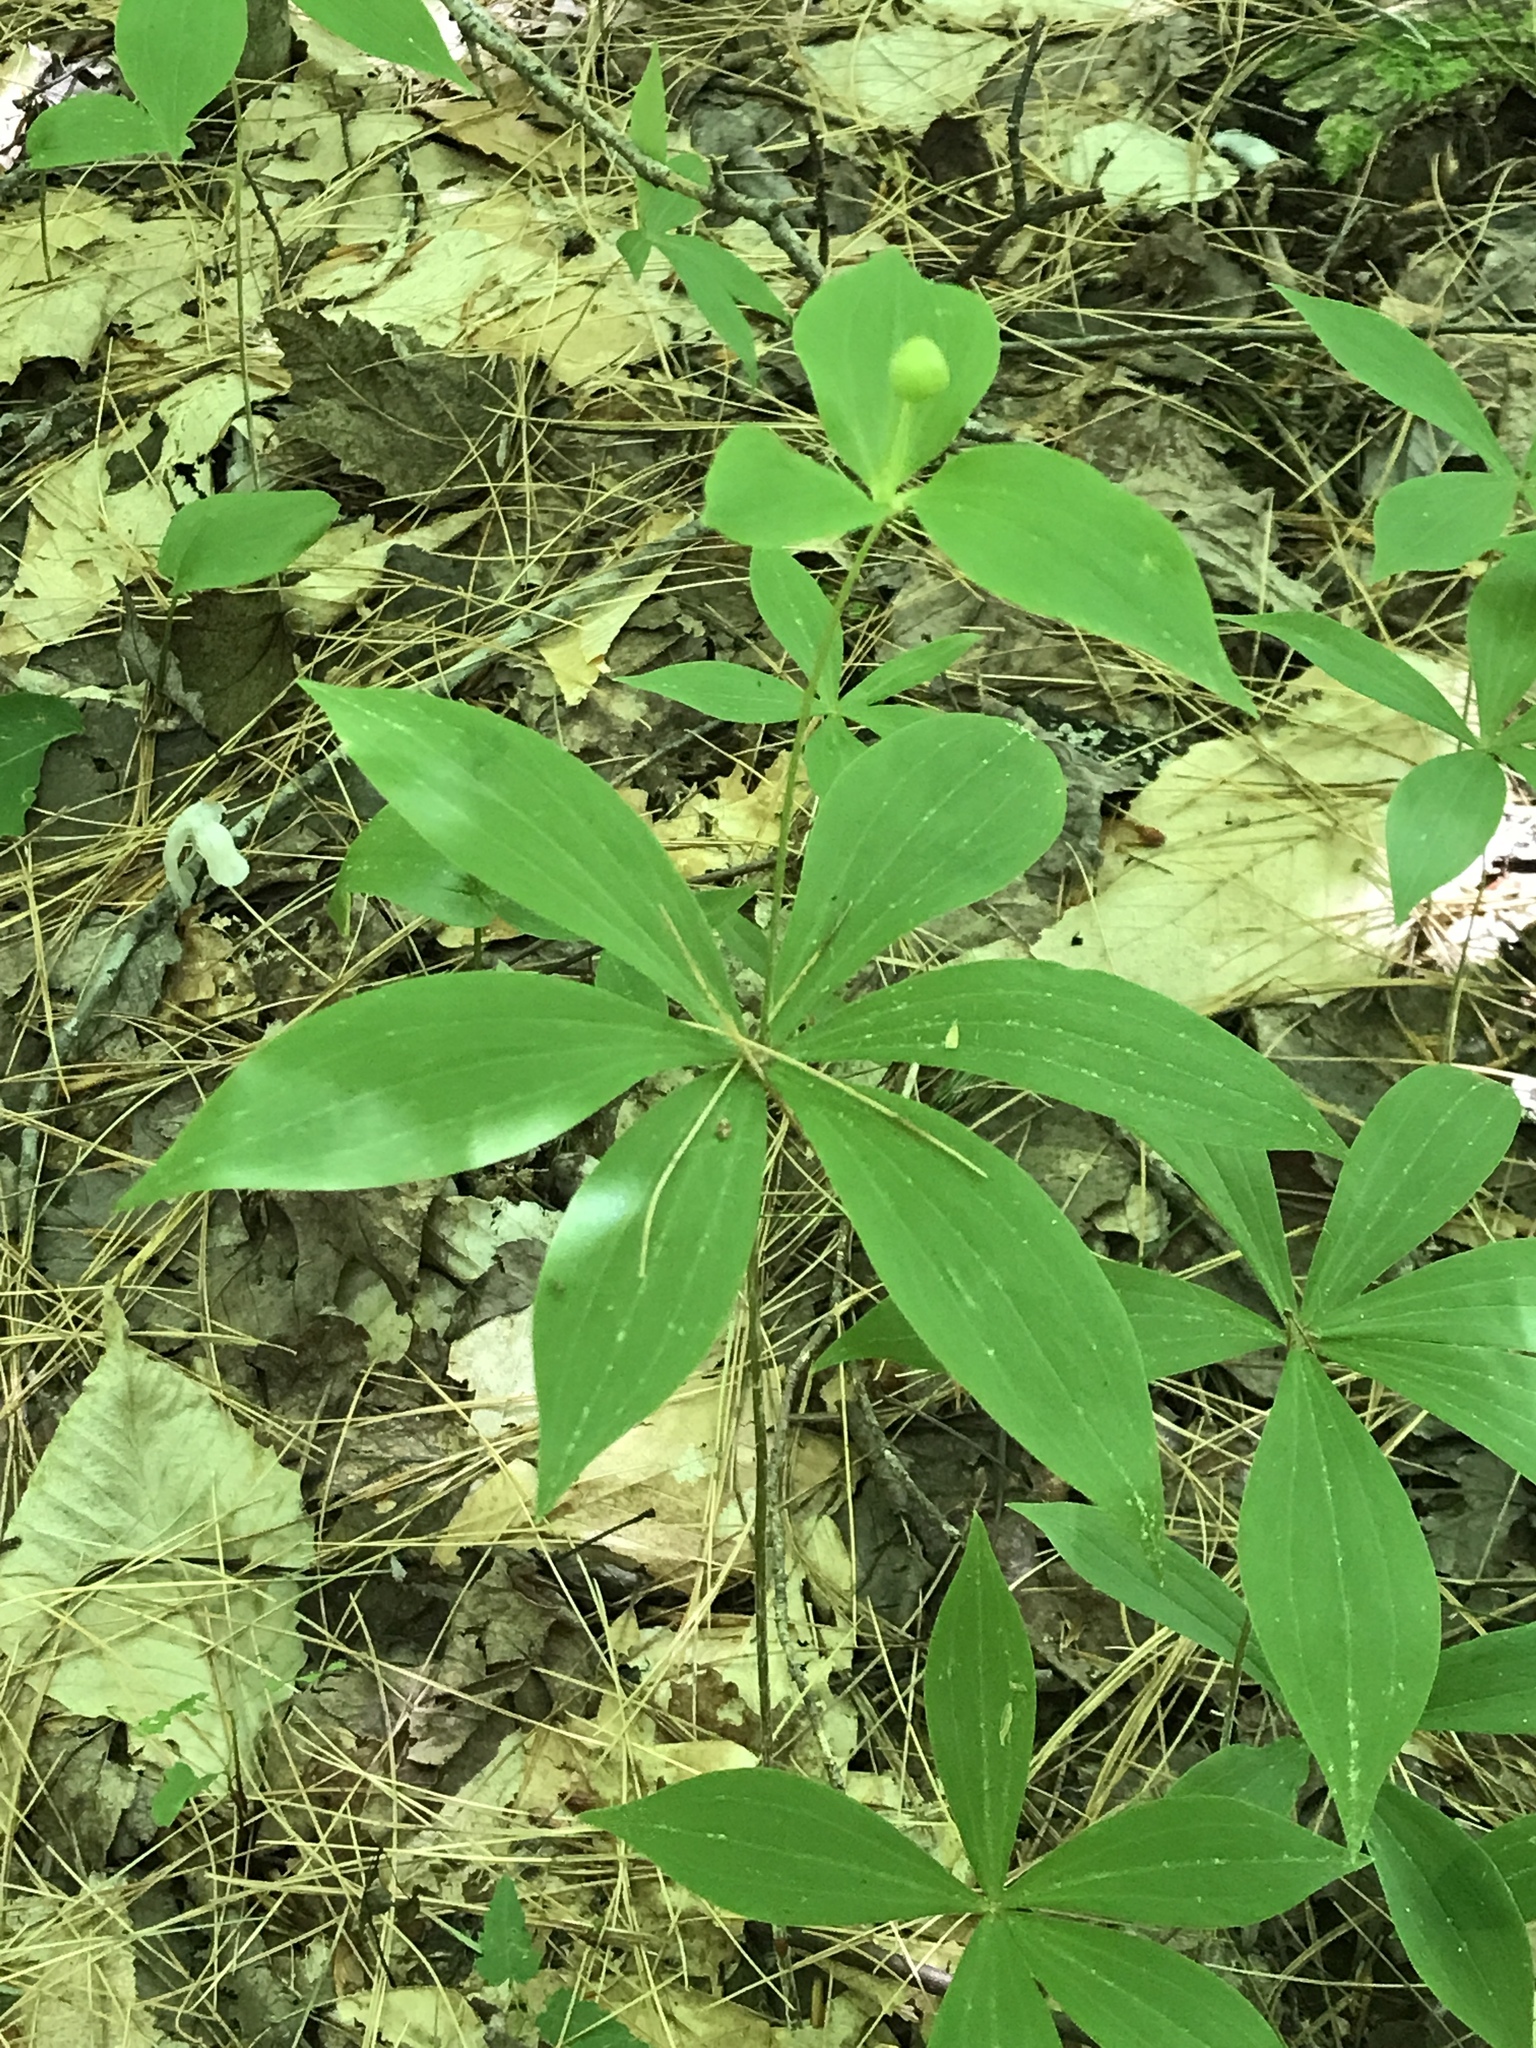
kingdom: Plantae
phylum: Tracheophyta
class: Liliopsida
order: Liliales
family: Liliaceae
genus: Medeola
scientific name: Medeola virginiana
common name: Indian cucumber-root
